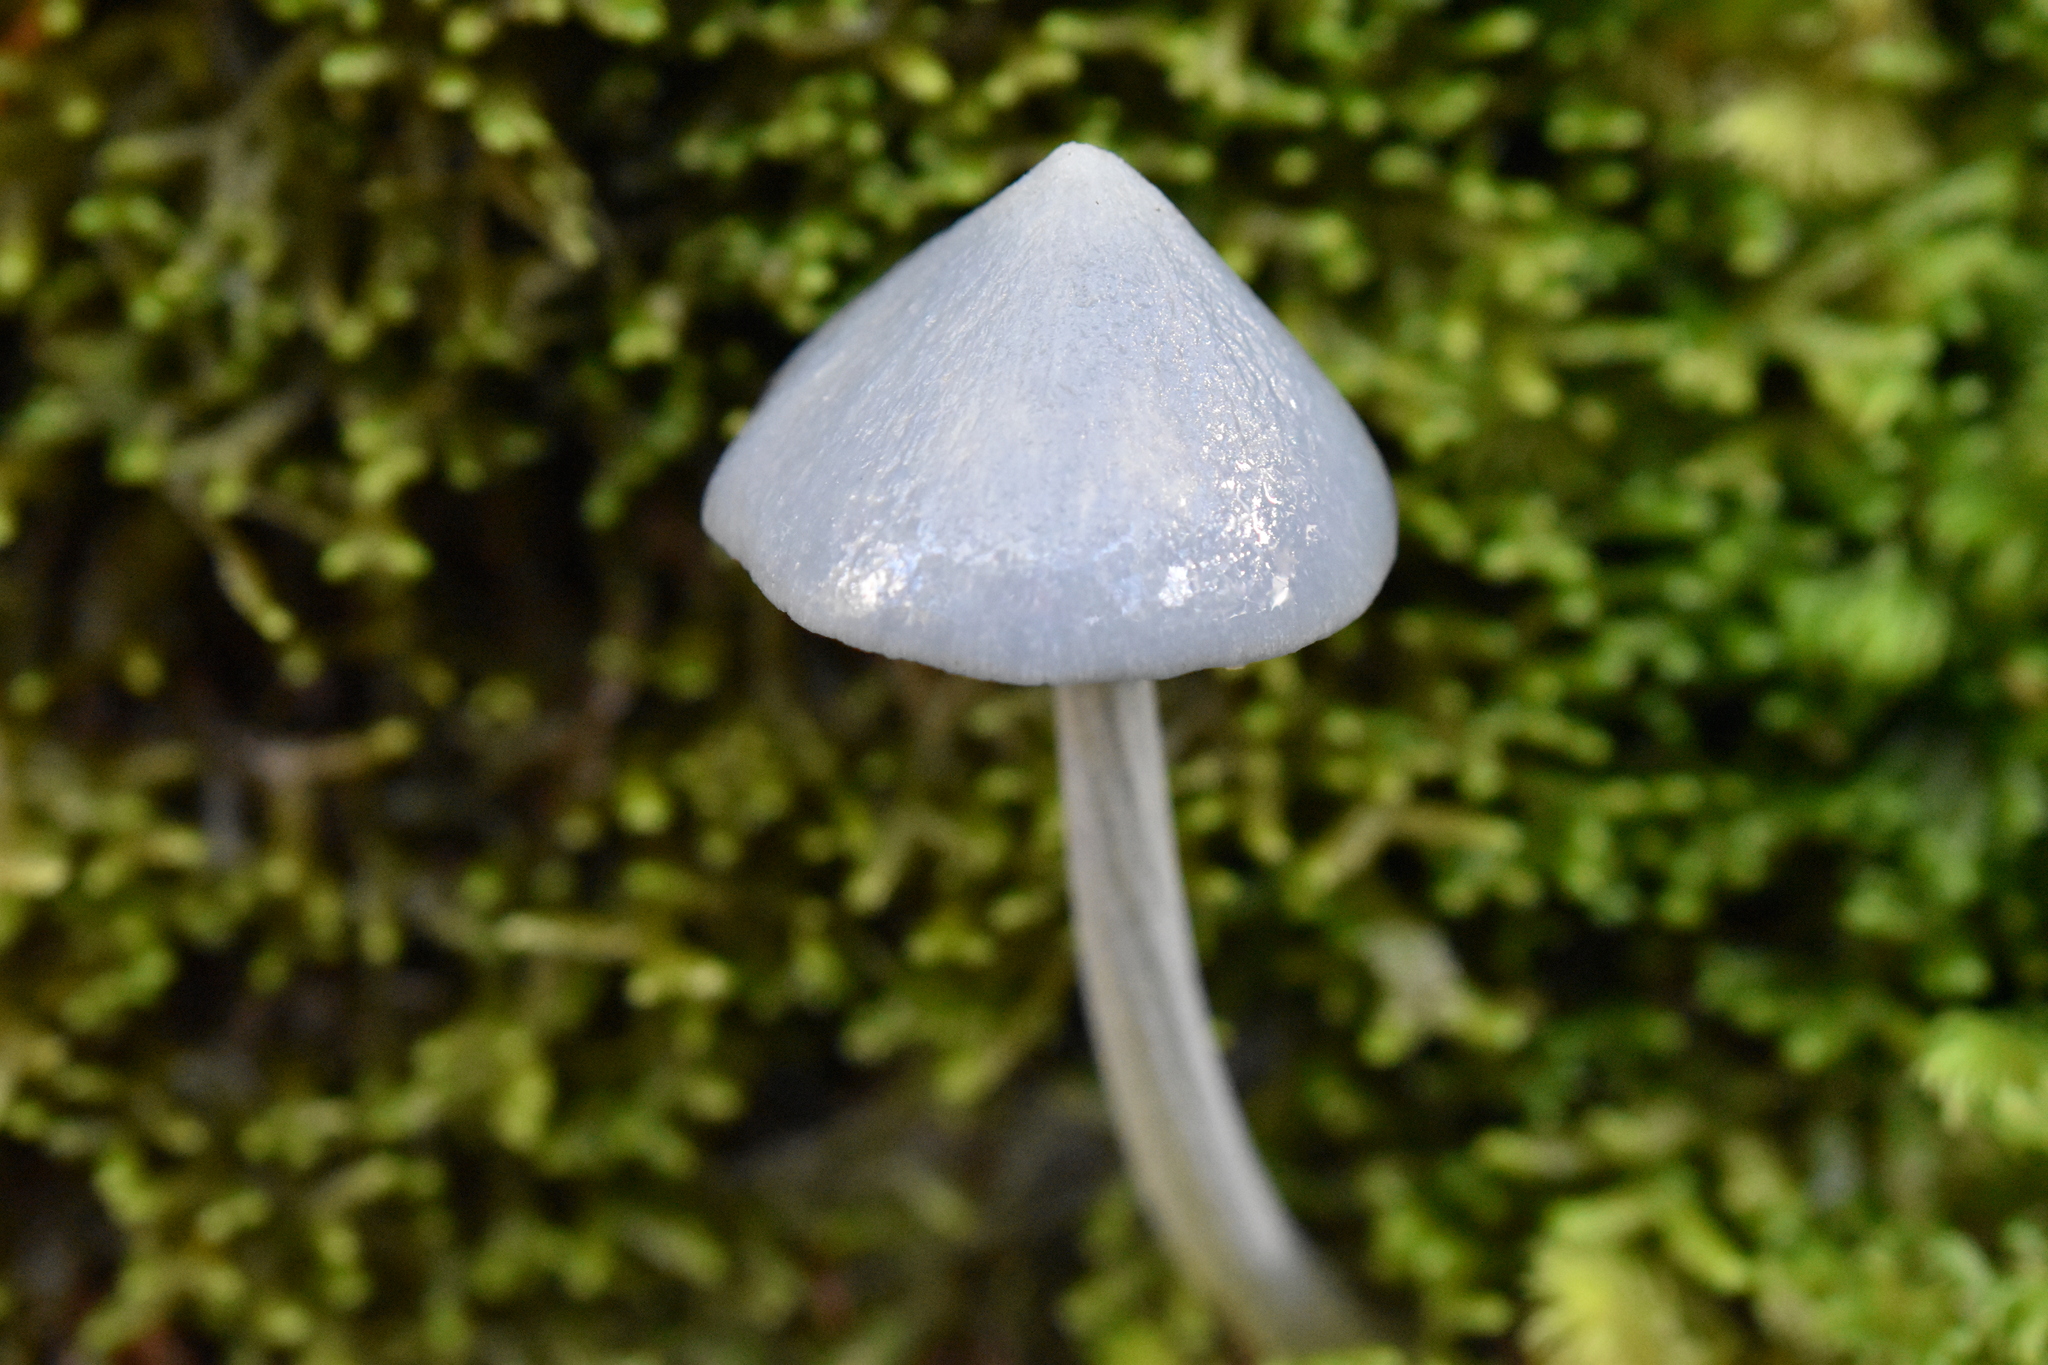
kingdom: Fungi
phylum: Basidiomycota
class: Agaricomycetes
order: Agaricales
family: Entolomataceae
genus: Entoloma
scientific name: Entoloma canoconicum
